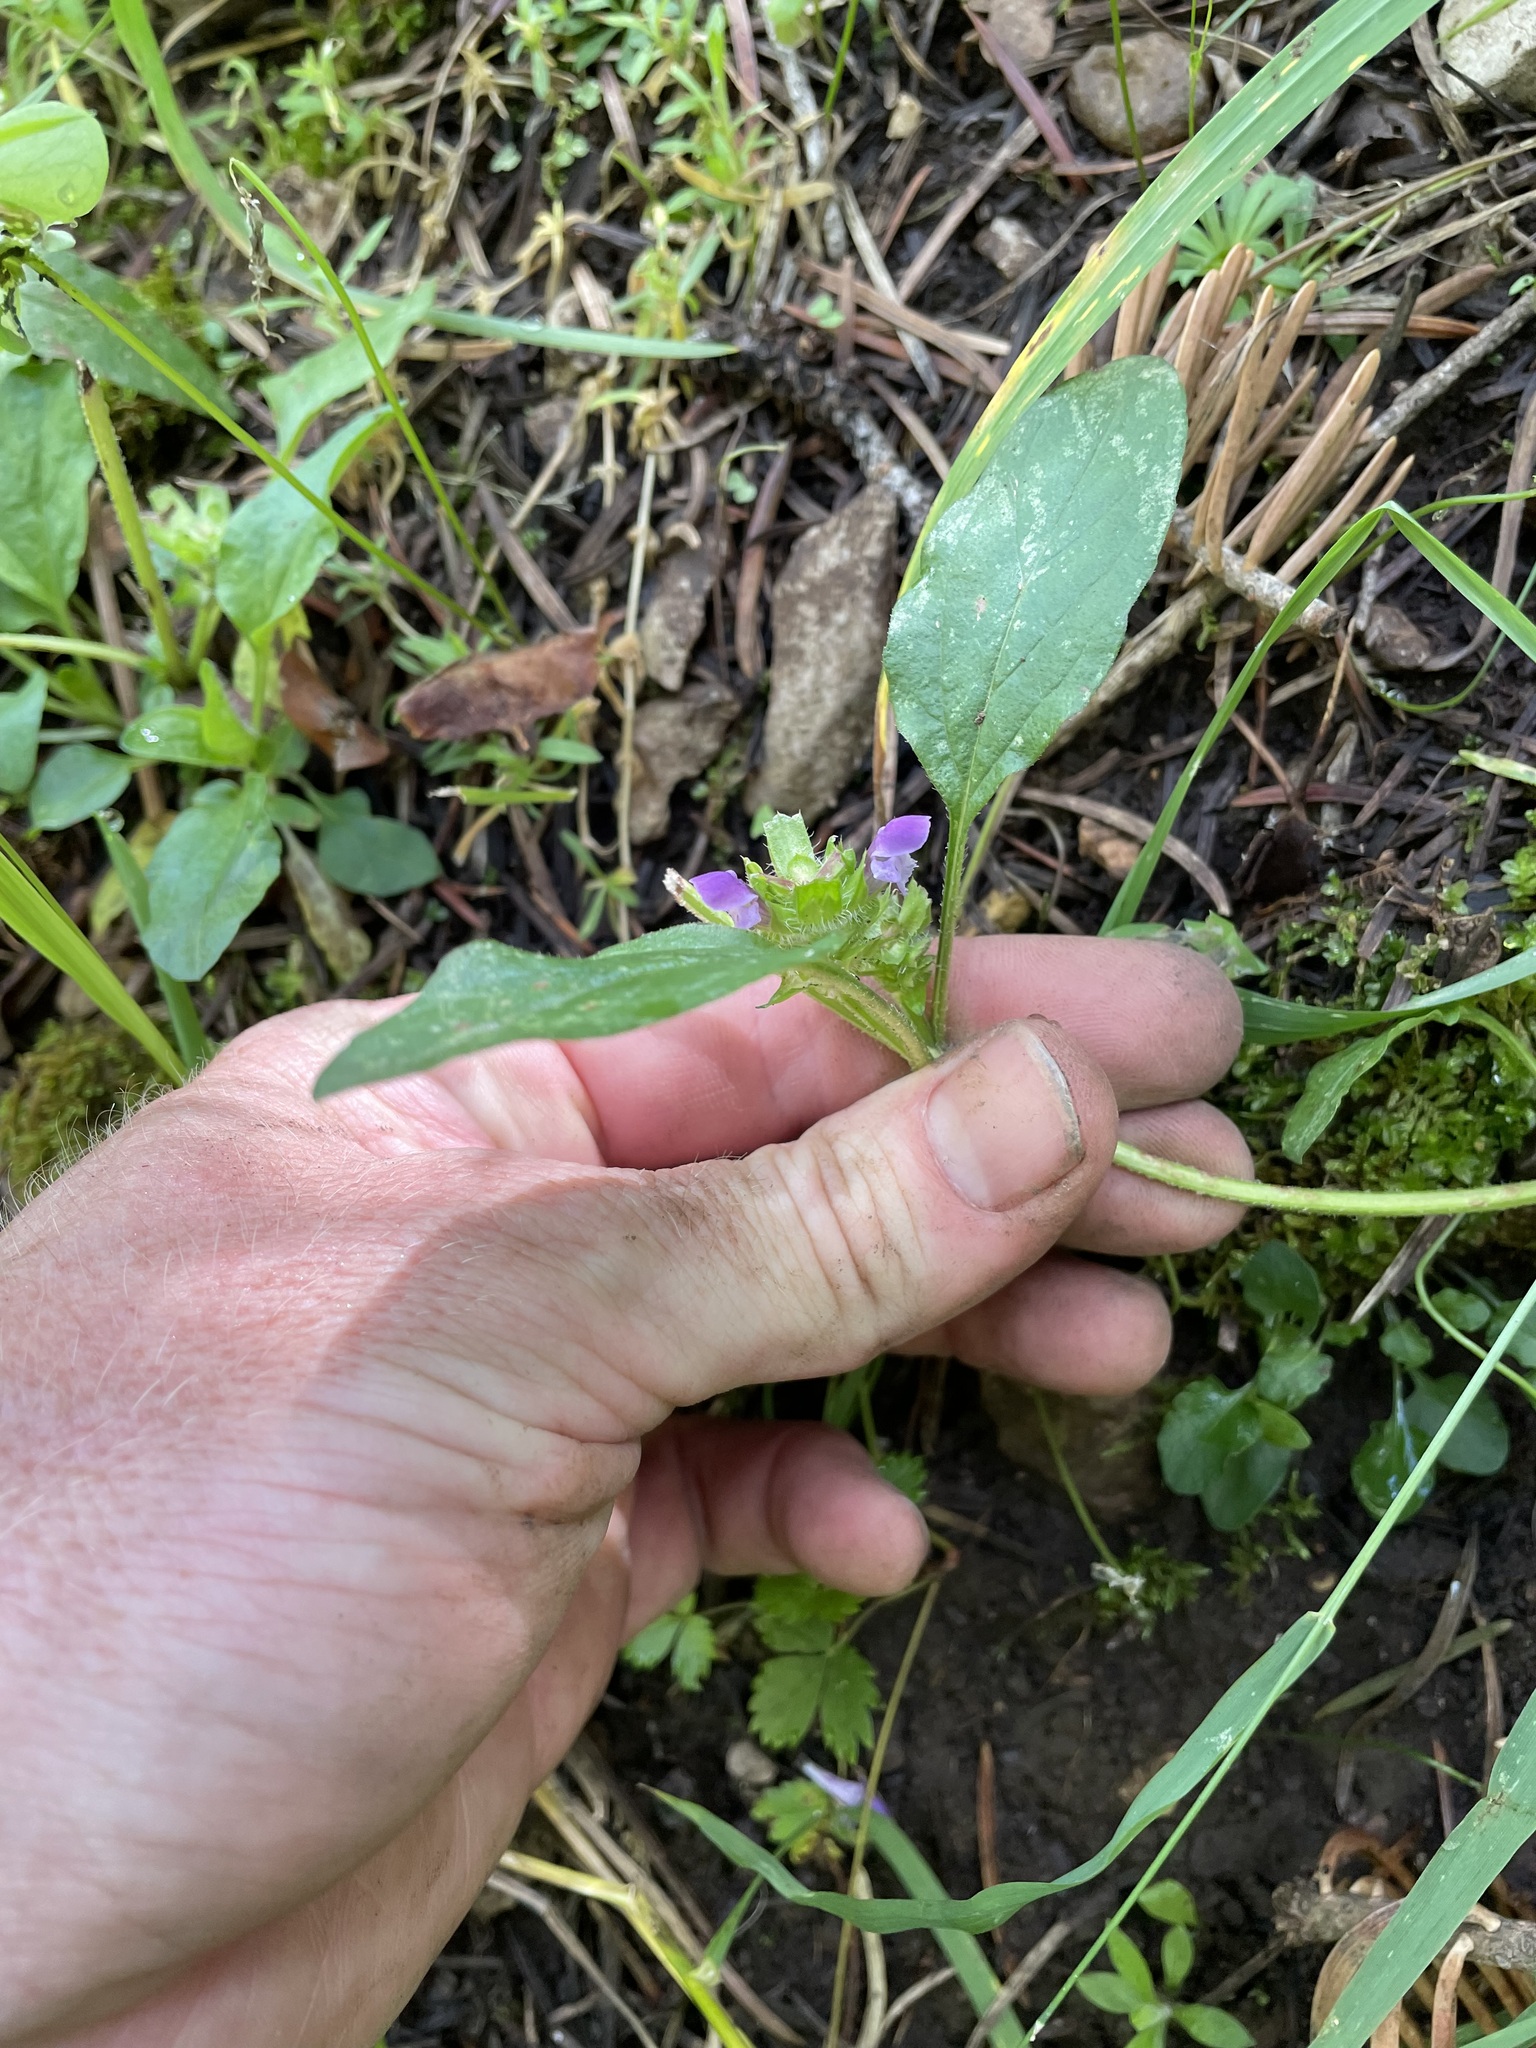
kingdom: Plantae
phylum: Tracheophyta
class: Magnoliopsida
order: Lamiales
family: Lamiaceae
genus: Prunella
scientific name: Prunella vulgaris
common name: Heal-all
